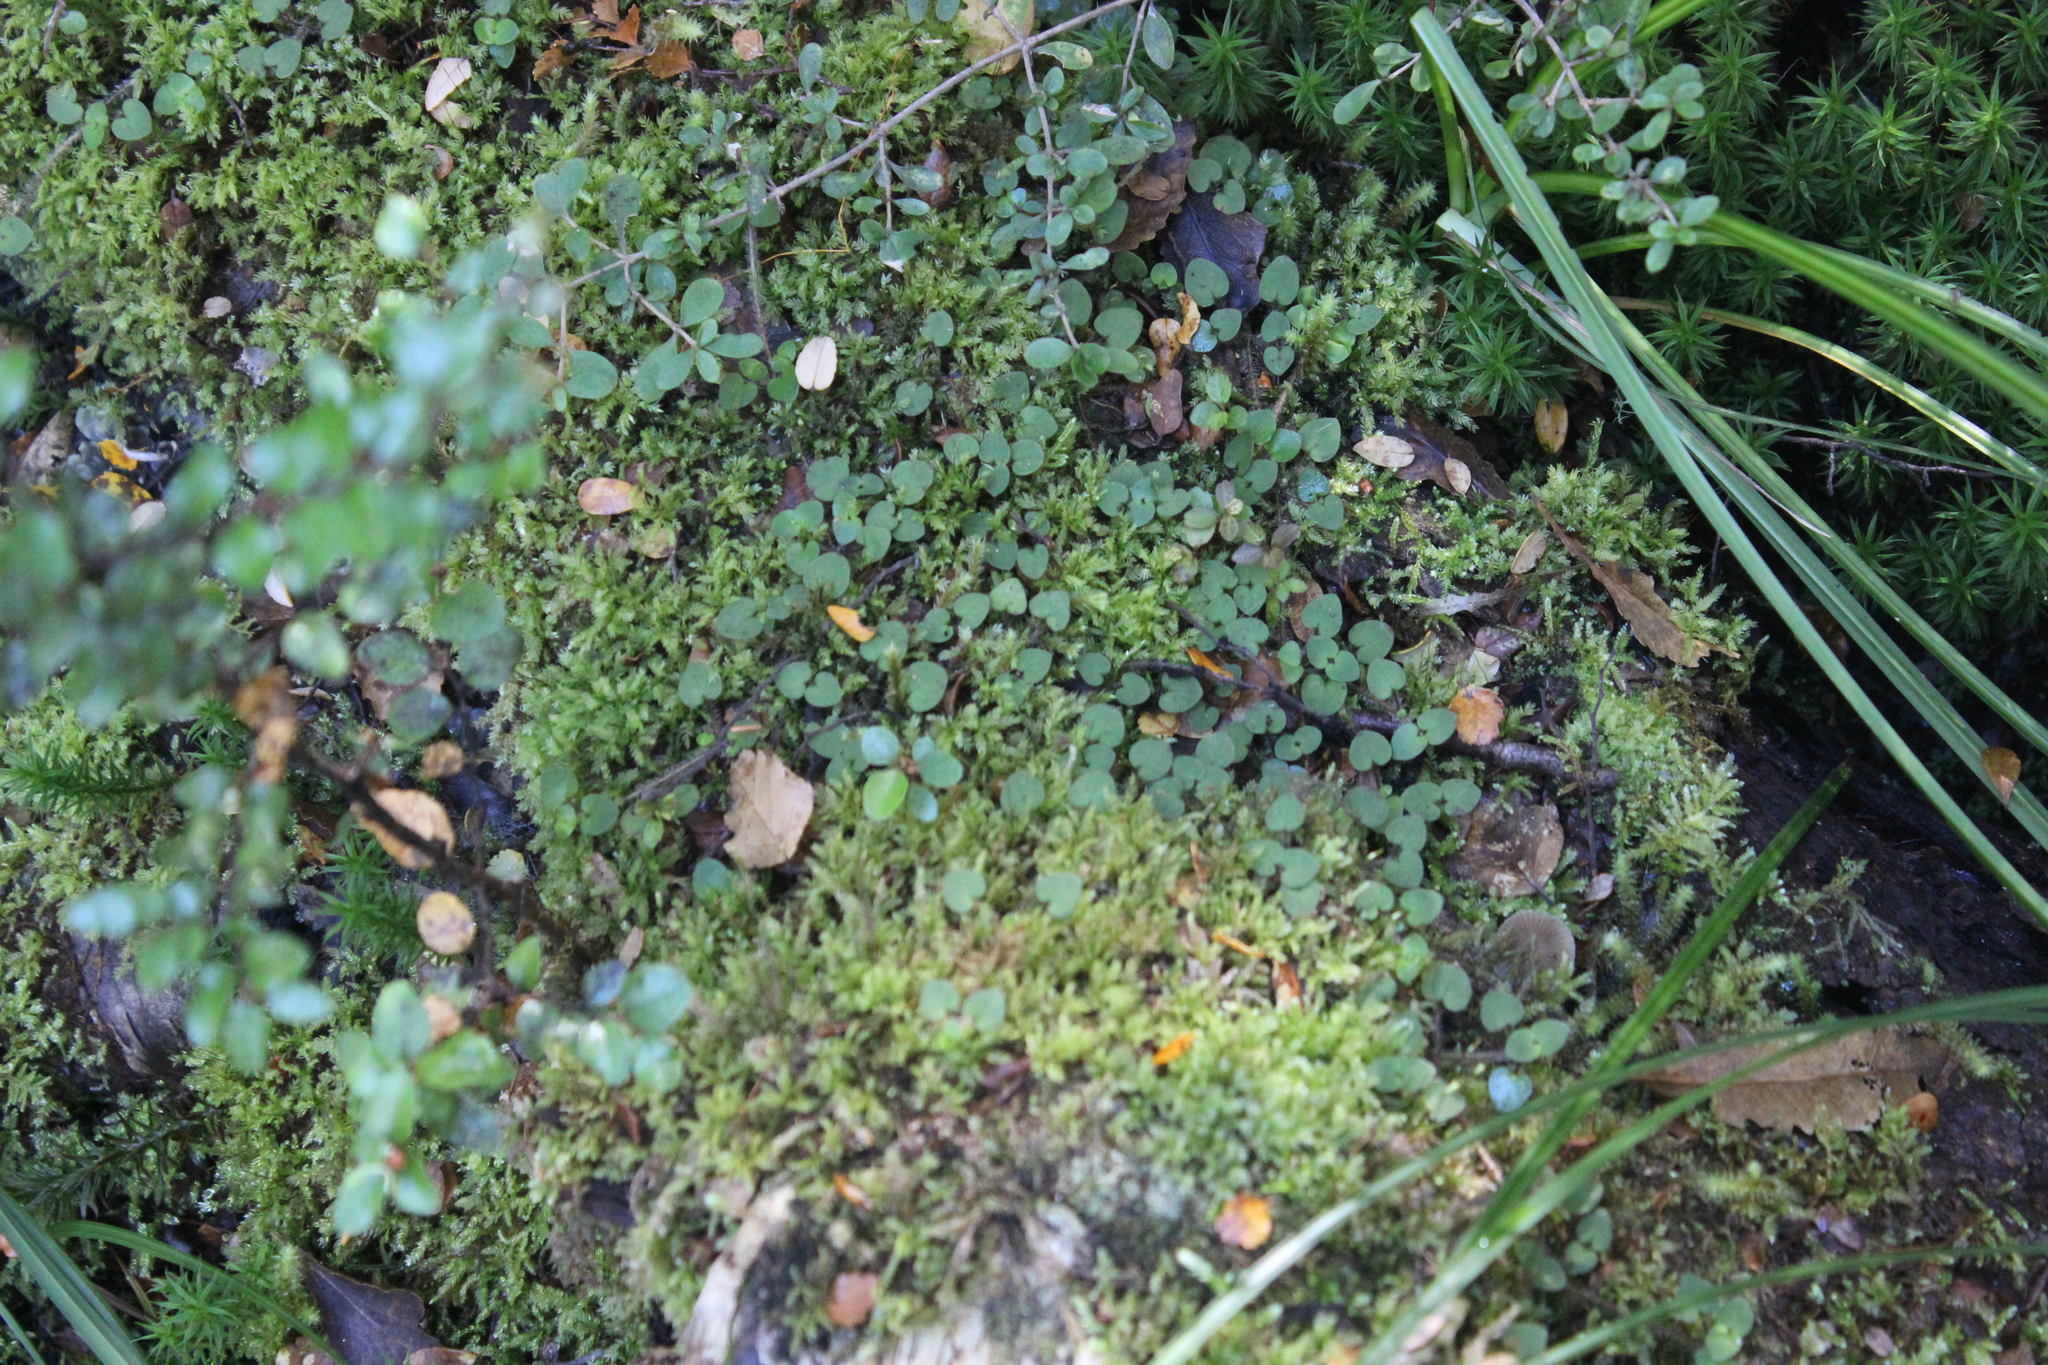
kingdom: Plantae
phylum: Tracheophyta
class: Magnoliopsida
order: Gentianales
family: Rubiaceae
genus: Nertera
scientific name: Nertera villosa
